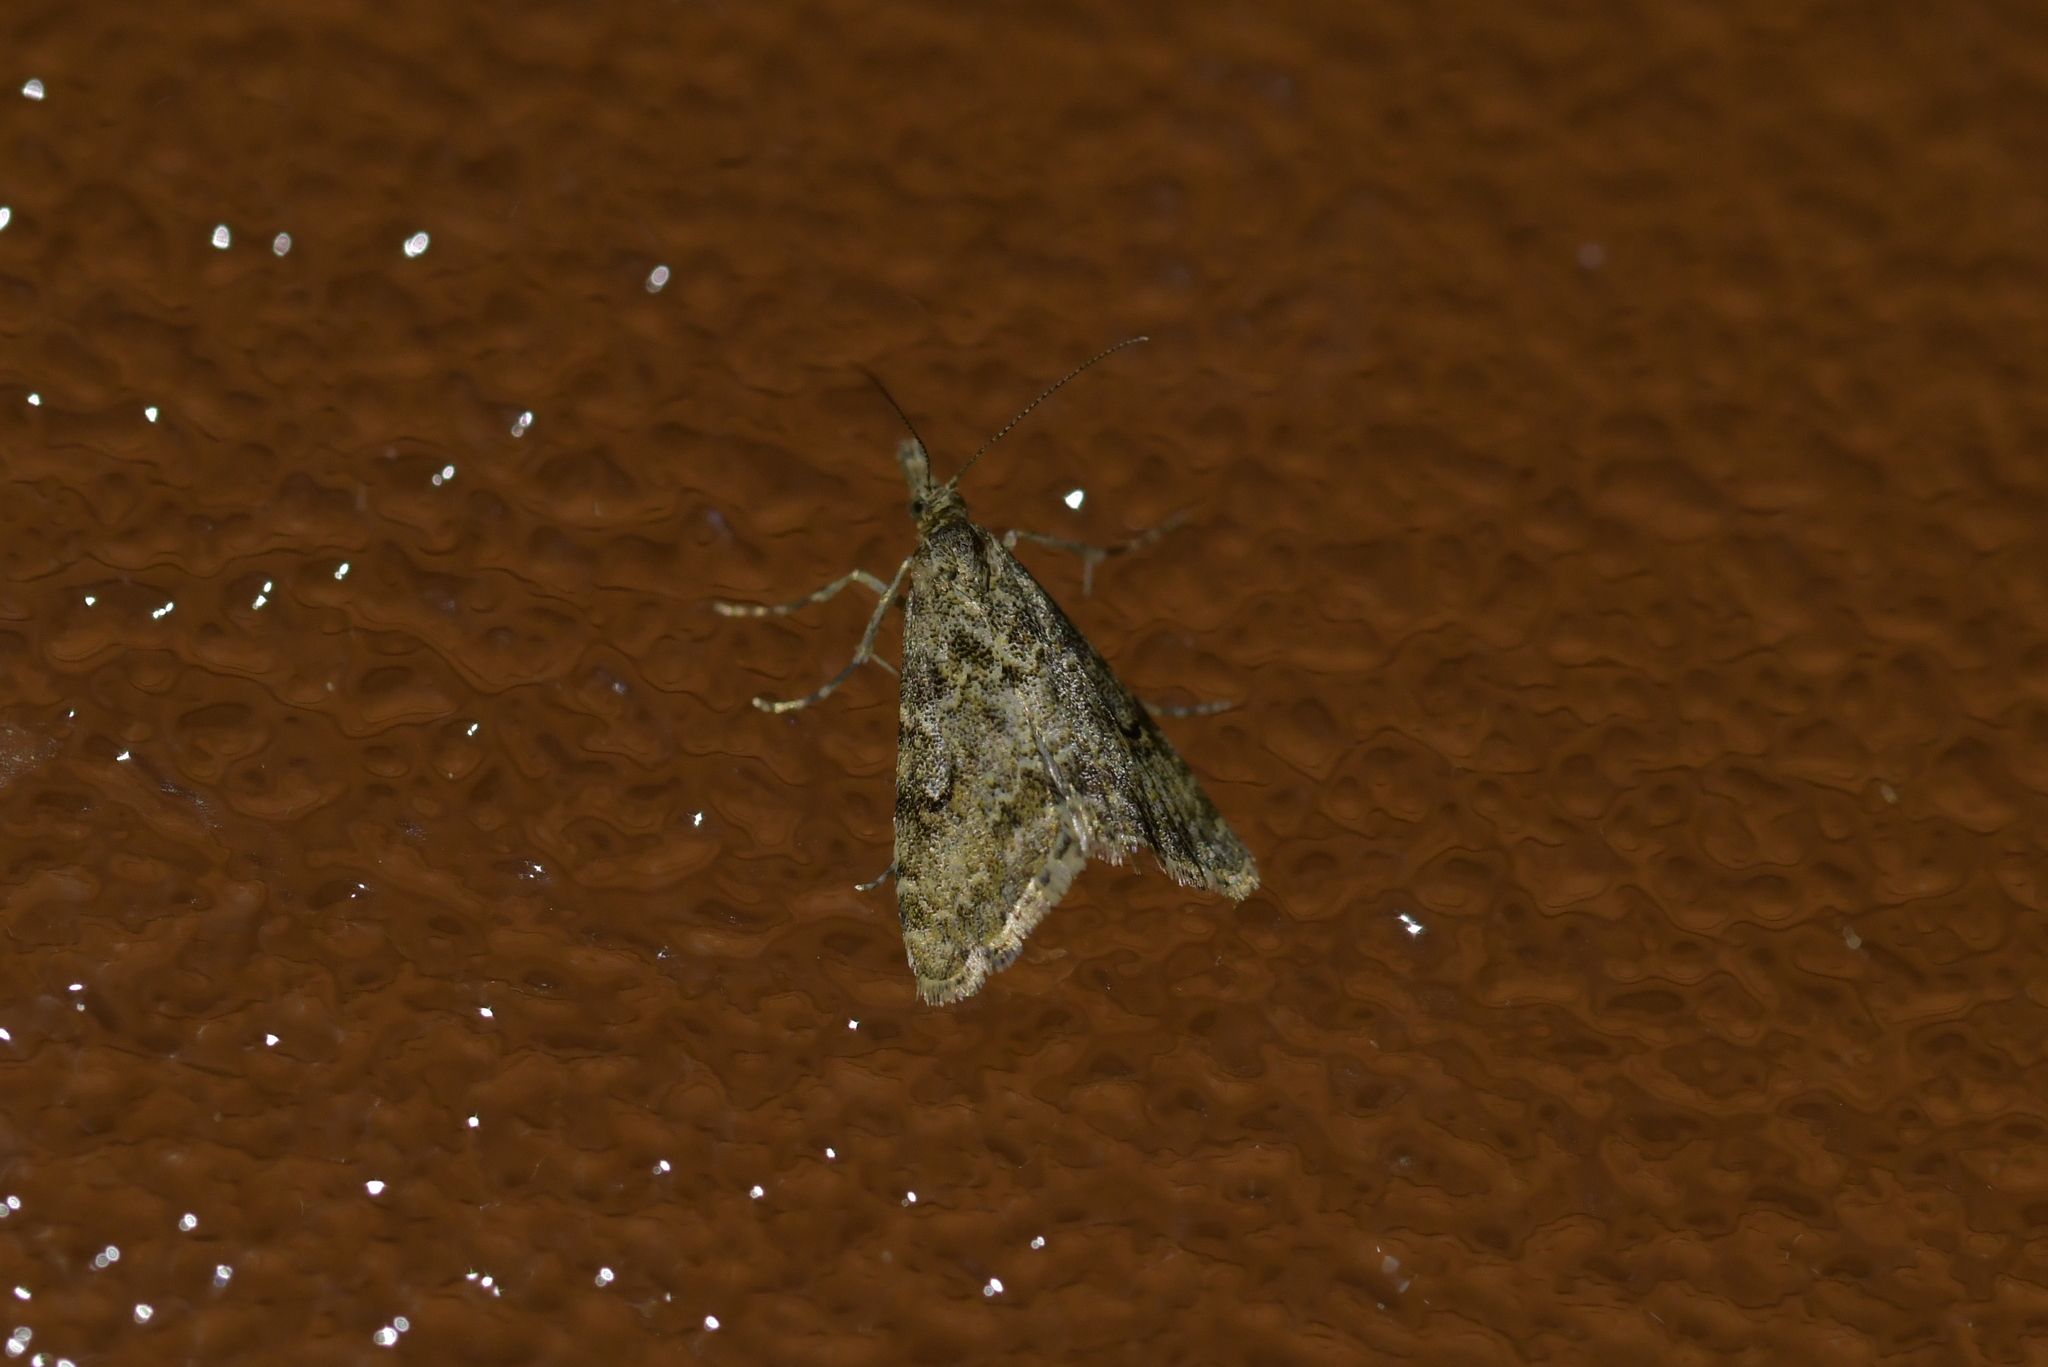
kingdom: Animalia
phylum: Arthropoda
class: Insecta
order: Lepidoptera
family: Crambidae
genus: Glaucocharis
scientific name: Glaucocharis elaina
